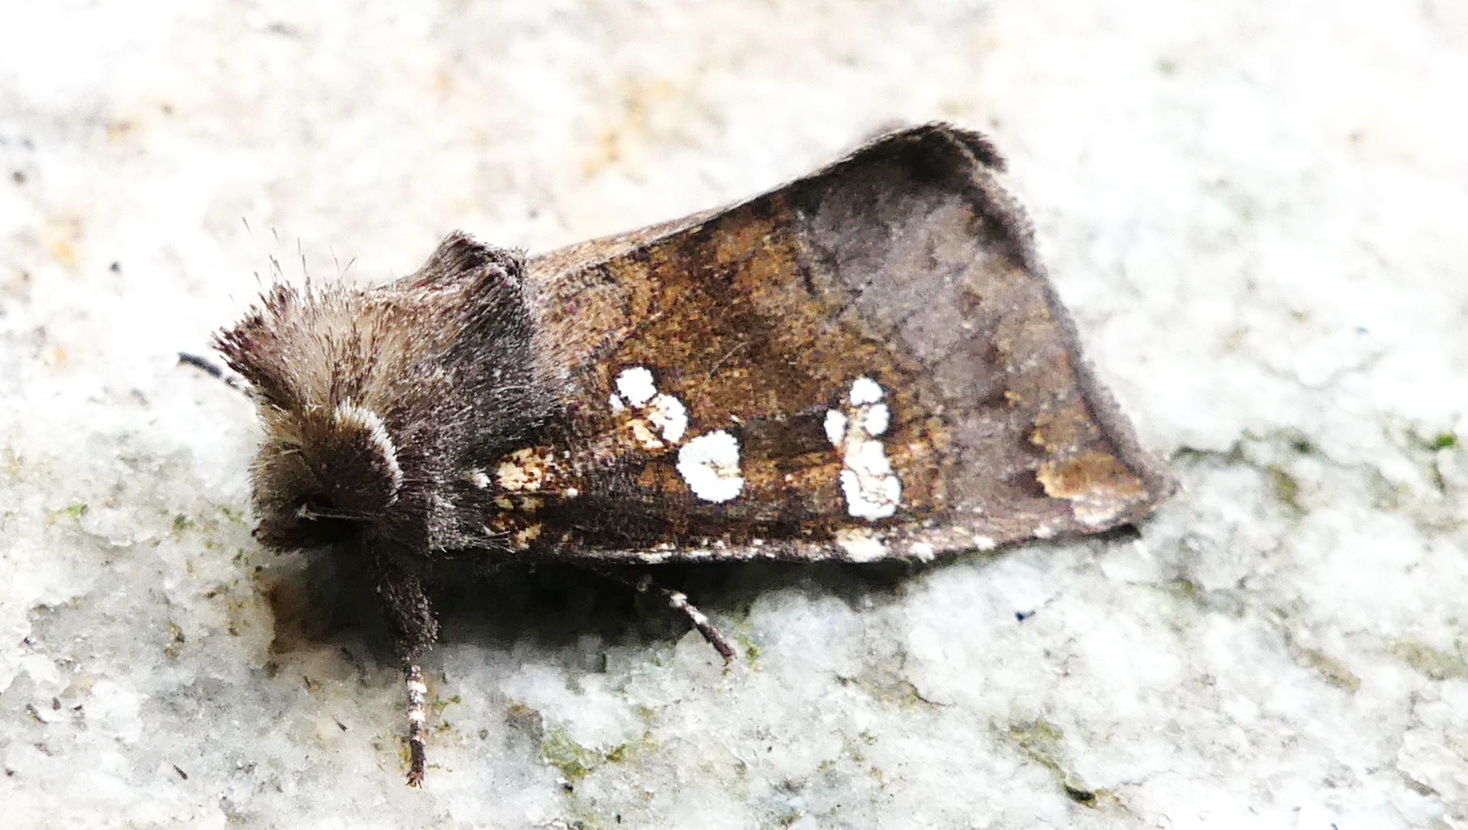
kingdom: Animalia
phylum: Arthropoda
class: Insecta
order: Lepidoptera
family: Noctuidae
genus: Papaipema
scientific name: Papaipema unimoda
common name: Meadow rue borer moth
